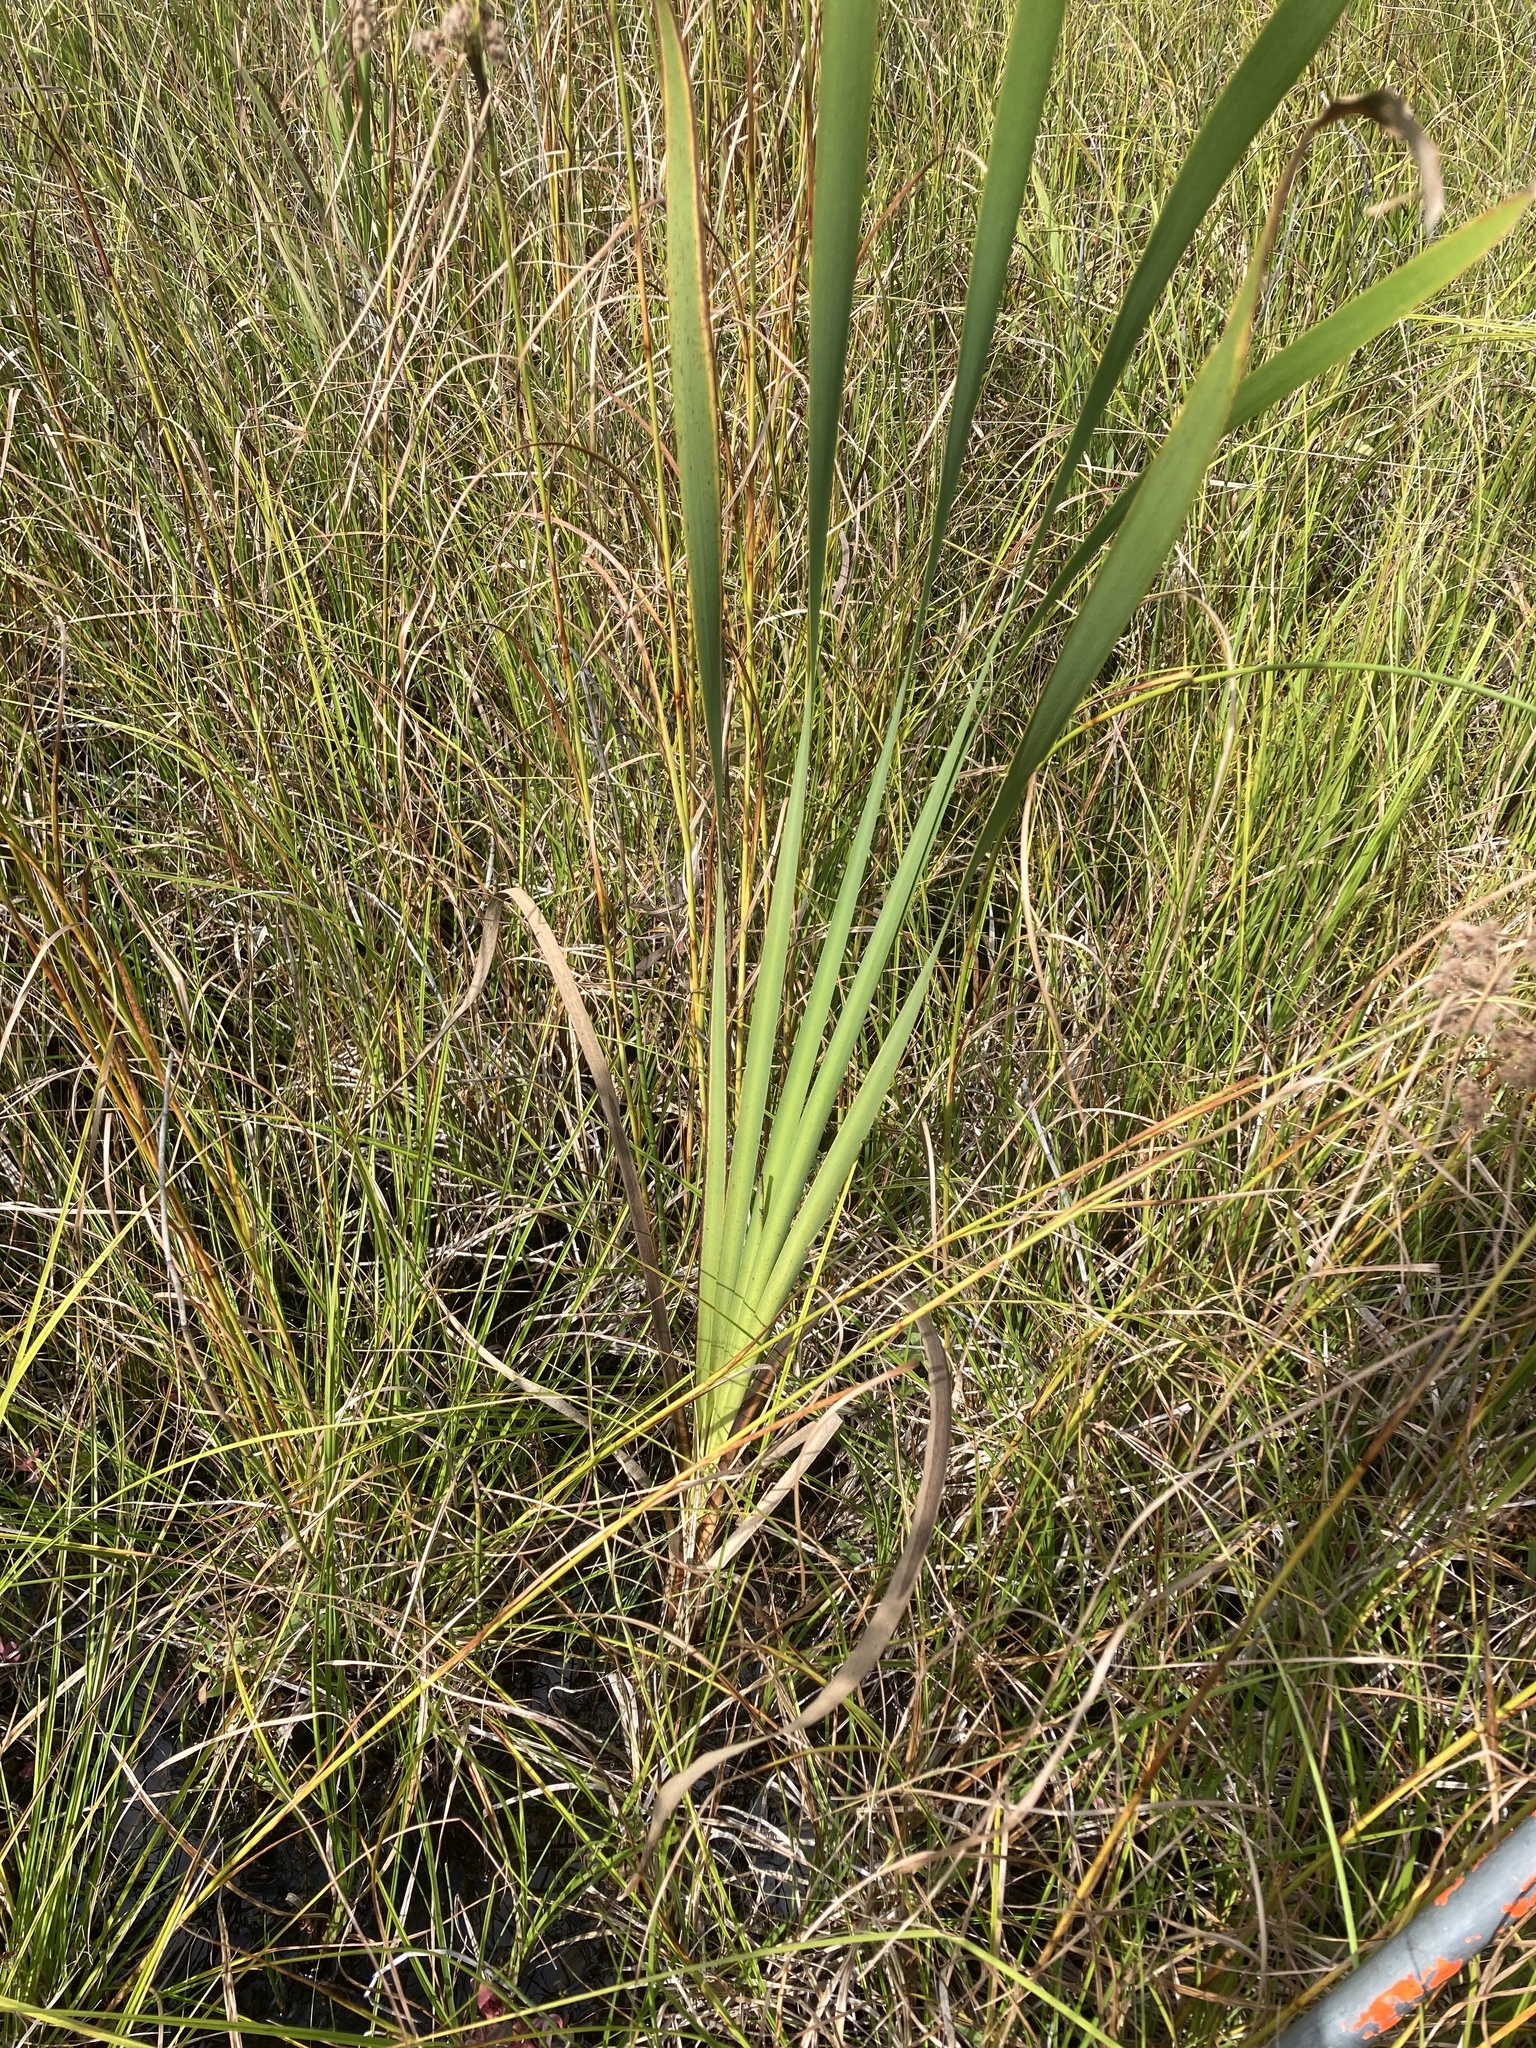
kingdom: Plantae
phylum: Tracheophyta
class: Liliopsida
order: Poales
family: Typhaceae
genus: Typha
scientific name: Typha latifolia
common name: Broadleaf cattail
